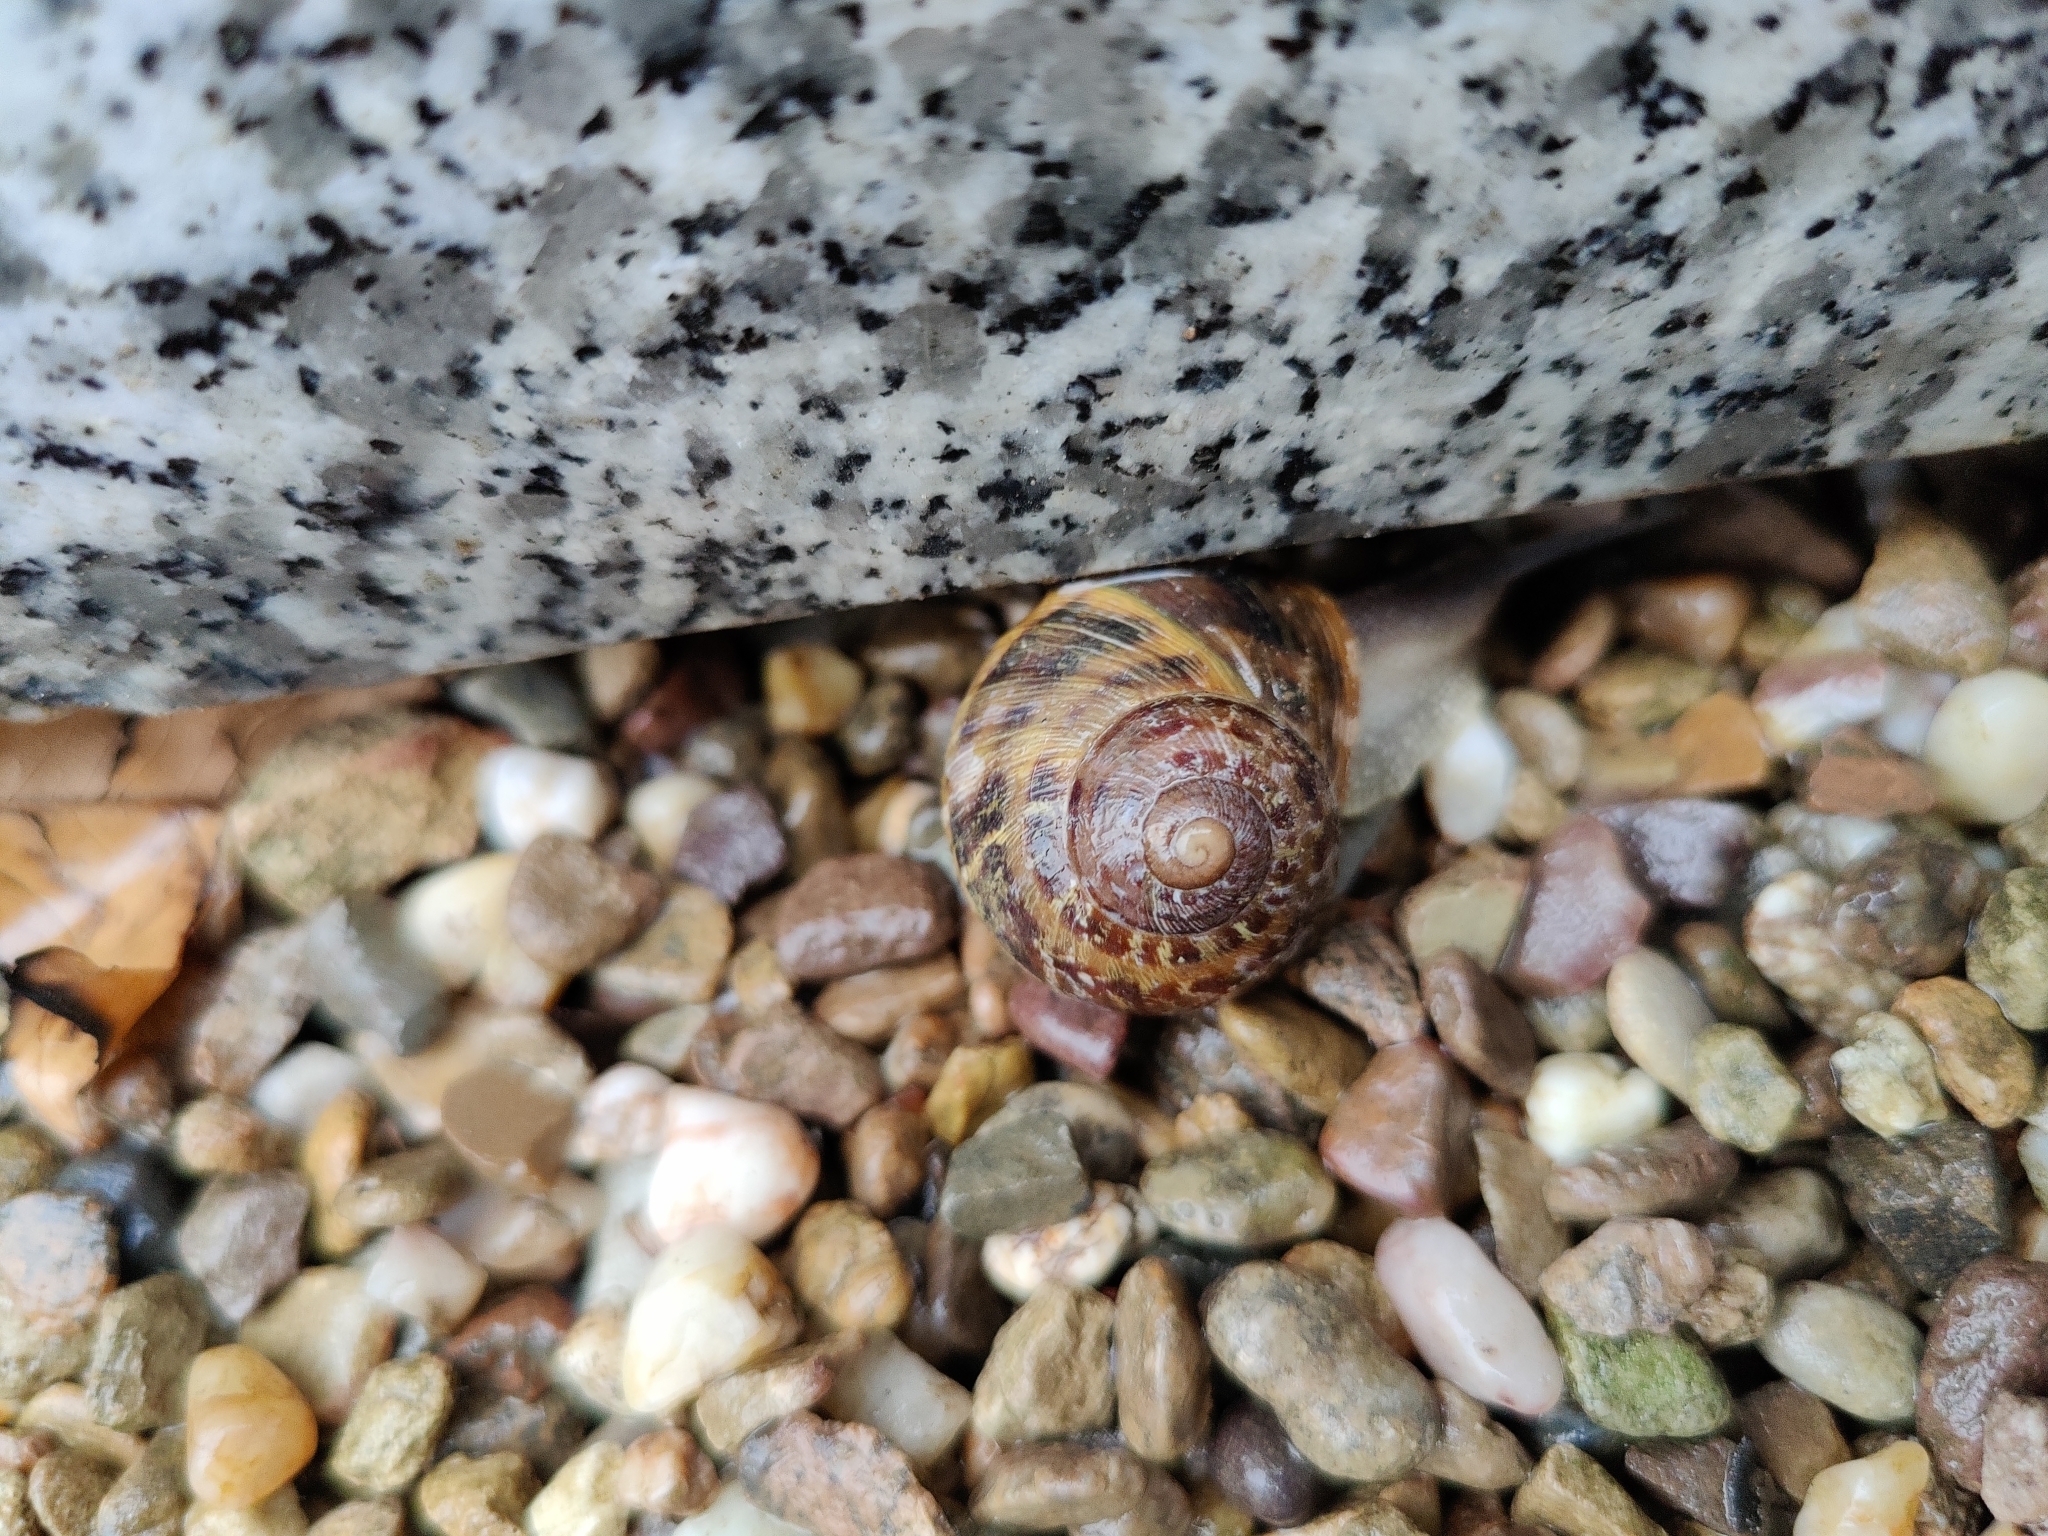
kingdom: Animalia
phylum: Mollusca
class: Gastropoda
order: Stylommatophora
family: Helicidae
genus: Cornu
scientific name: Cornu aspersum
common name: Brown garden snail
